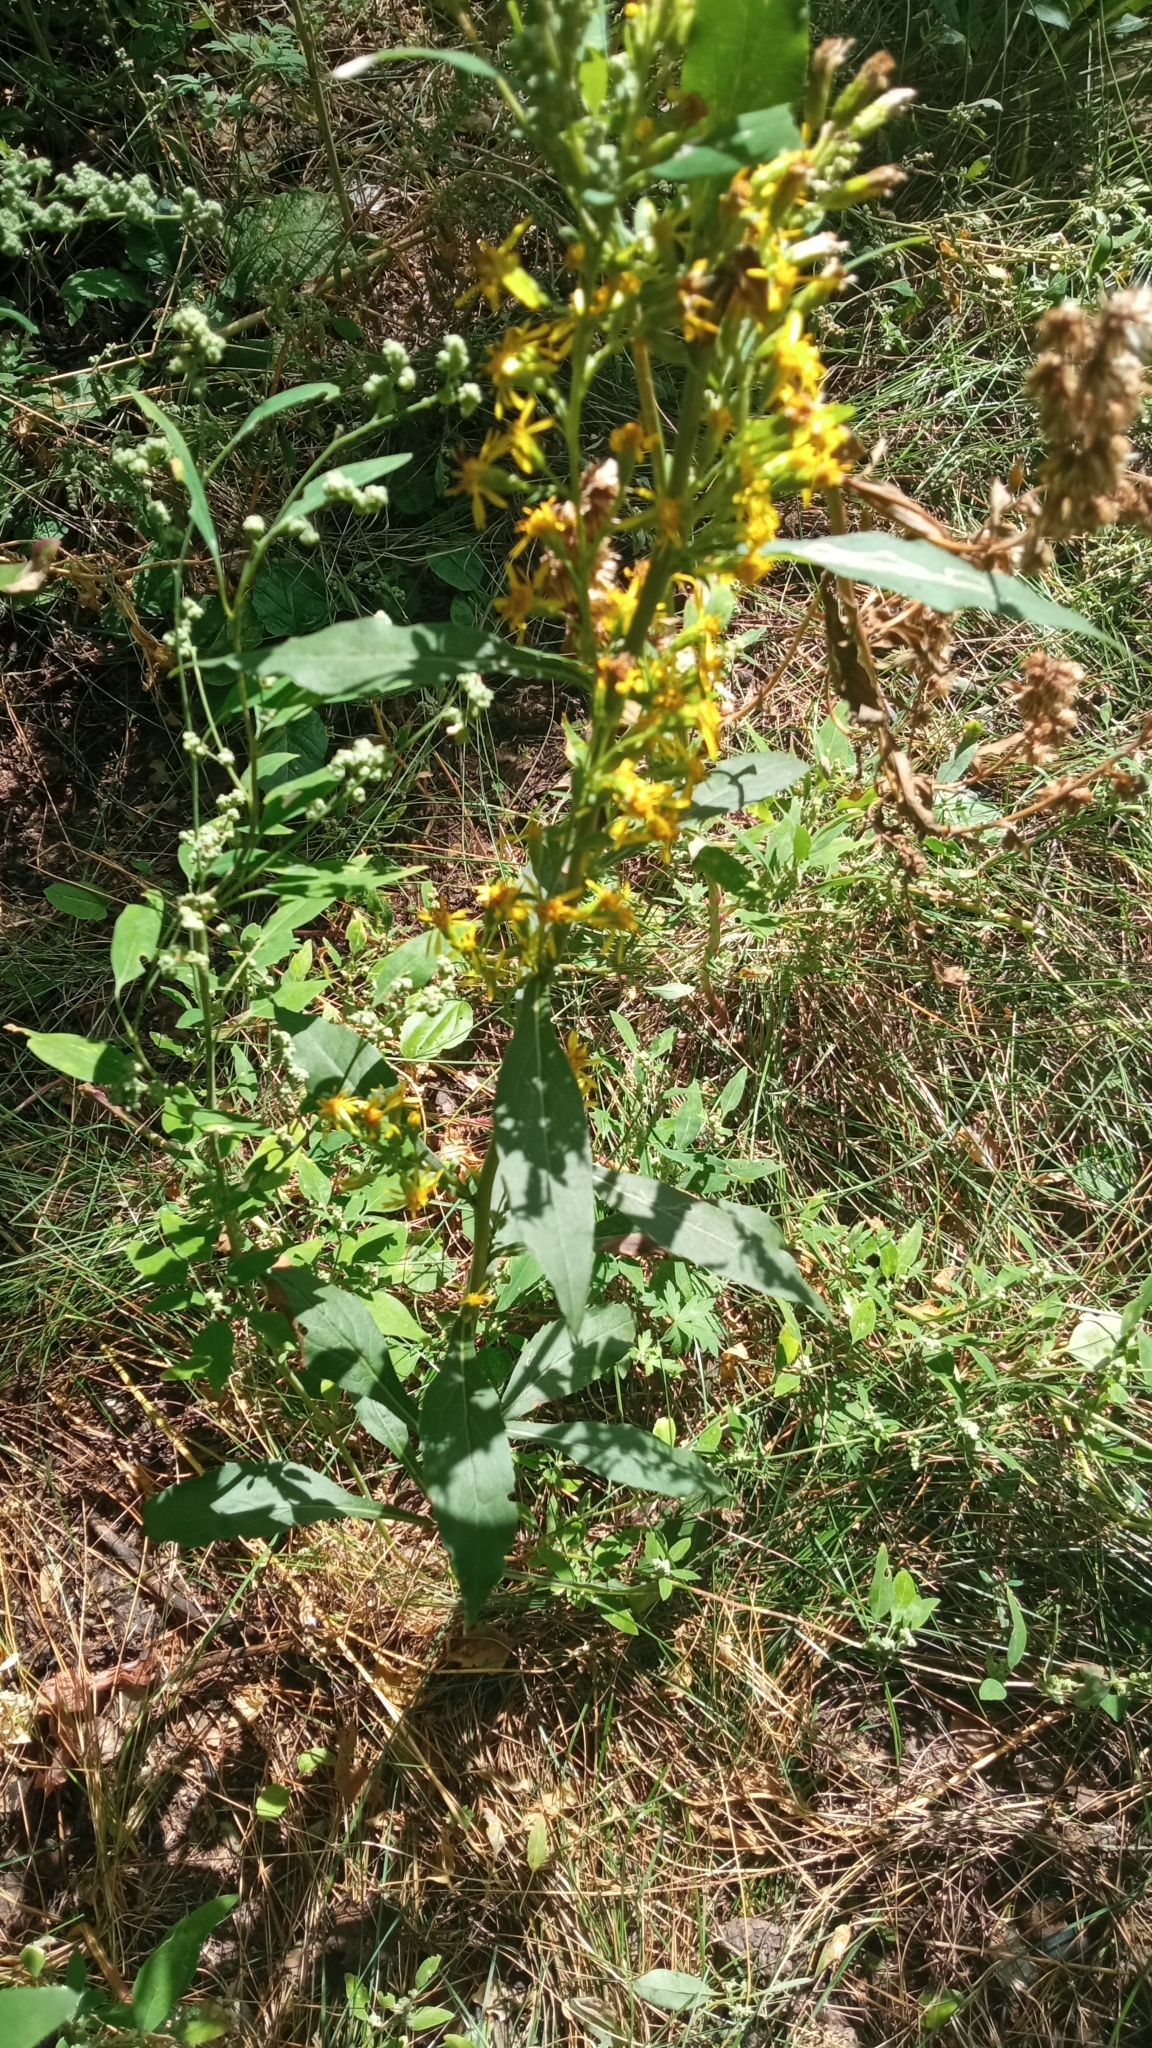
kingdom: Plantae
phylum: Tracheophyta
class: Magnoliopsida
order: Asterales
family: Asteraceae
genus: Solidago
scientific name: Solidago virgaurea
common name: Goldenrod
